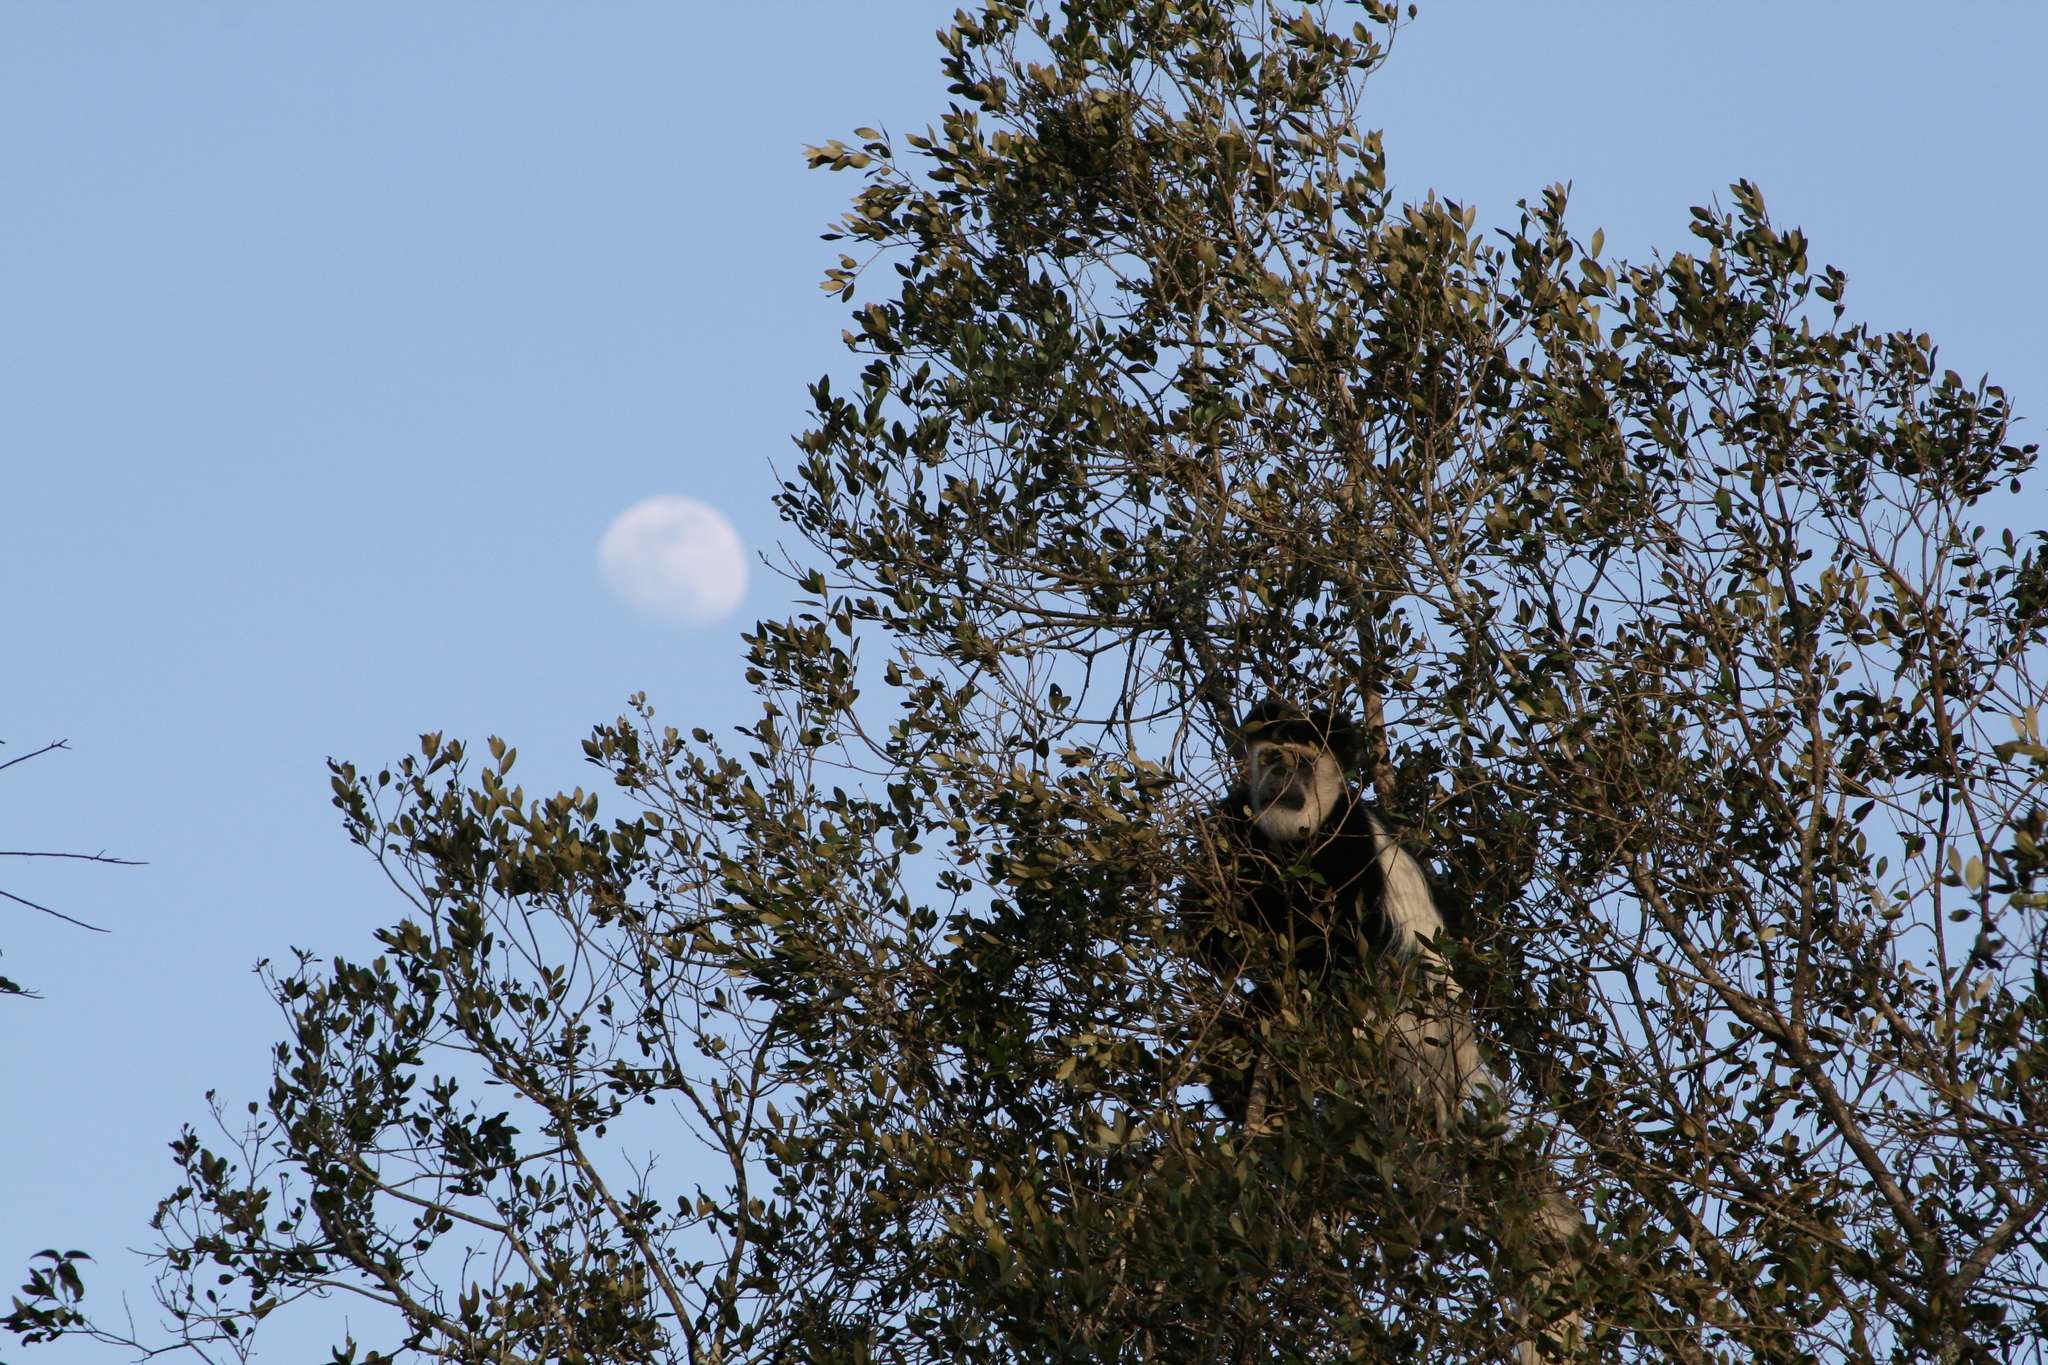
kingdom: Animalia
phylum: Chordata
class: Mammalia
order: Primates
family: Cercopithecidae
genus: Colobus
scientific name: Colobus guereza
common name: Mantled guereza
